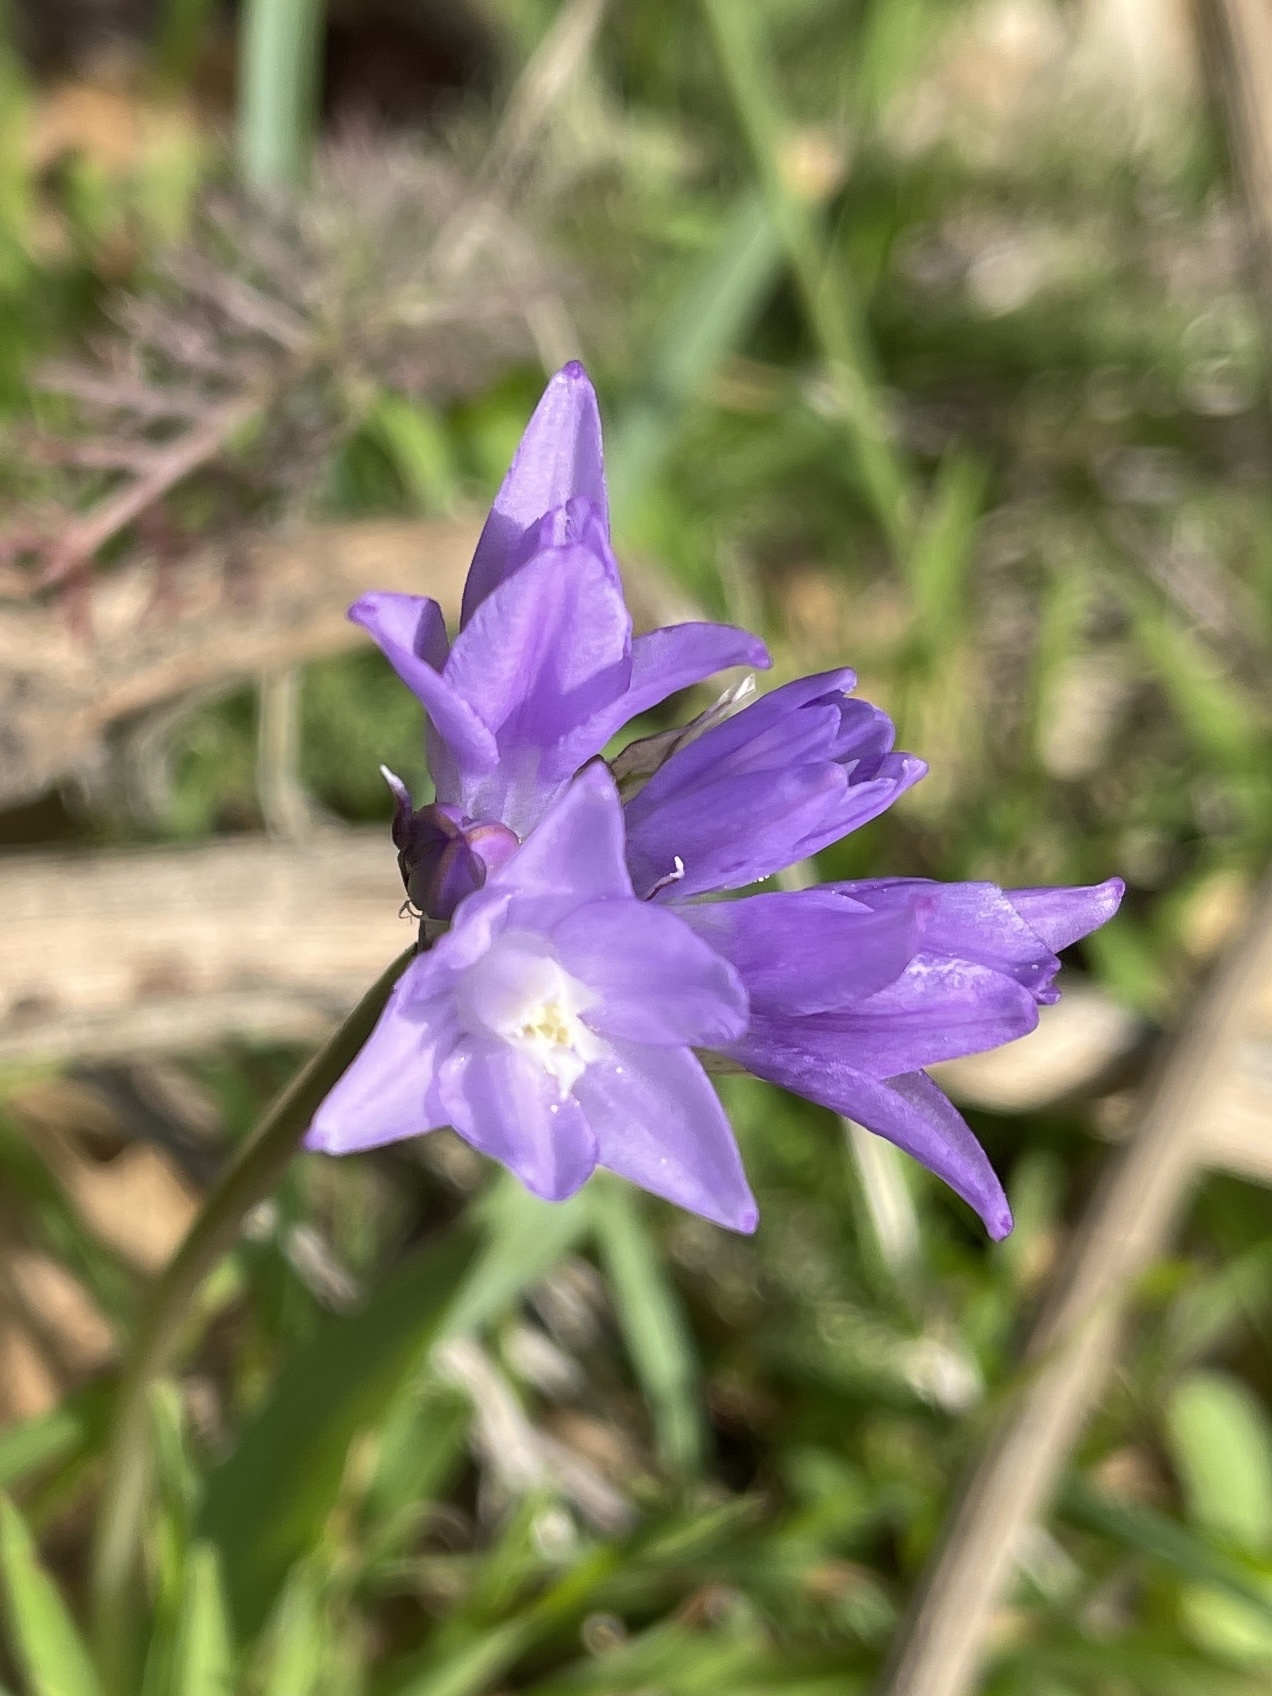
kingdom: Plantae
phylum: Tracheophyta
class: Liliopsida
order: Asparagales
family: Asparagaceae
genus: Dipterostemon
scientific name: Dipterostemon capitatus
